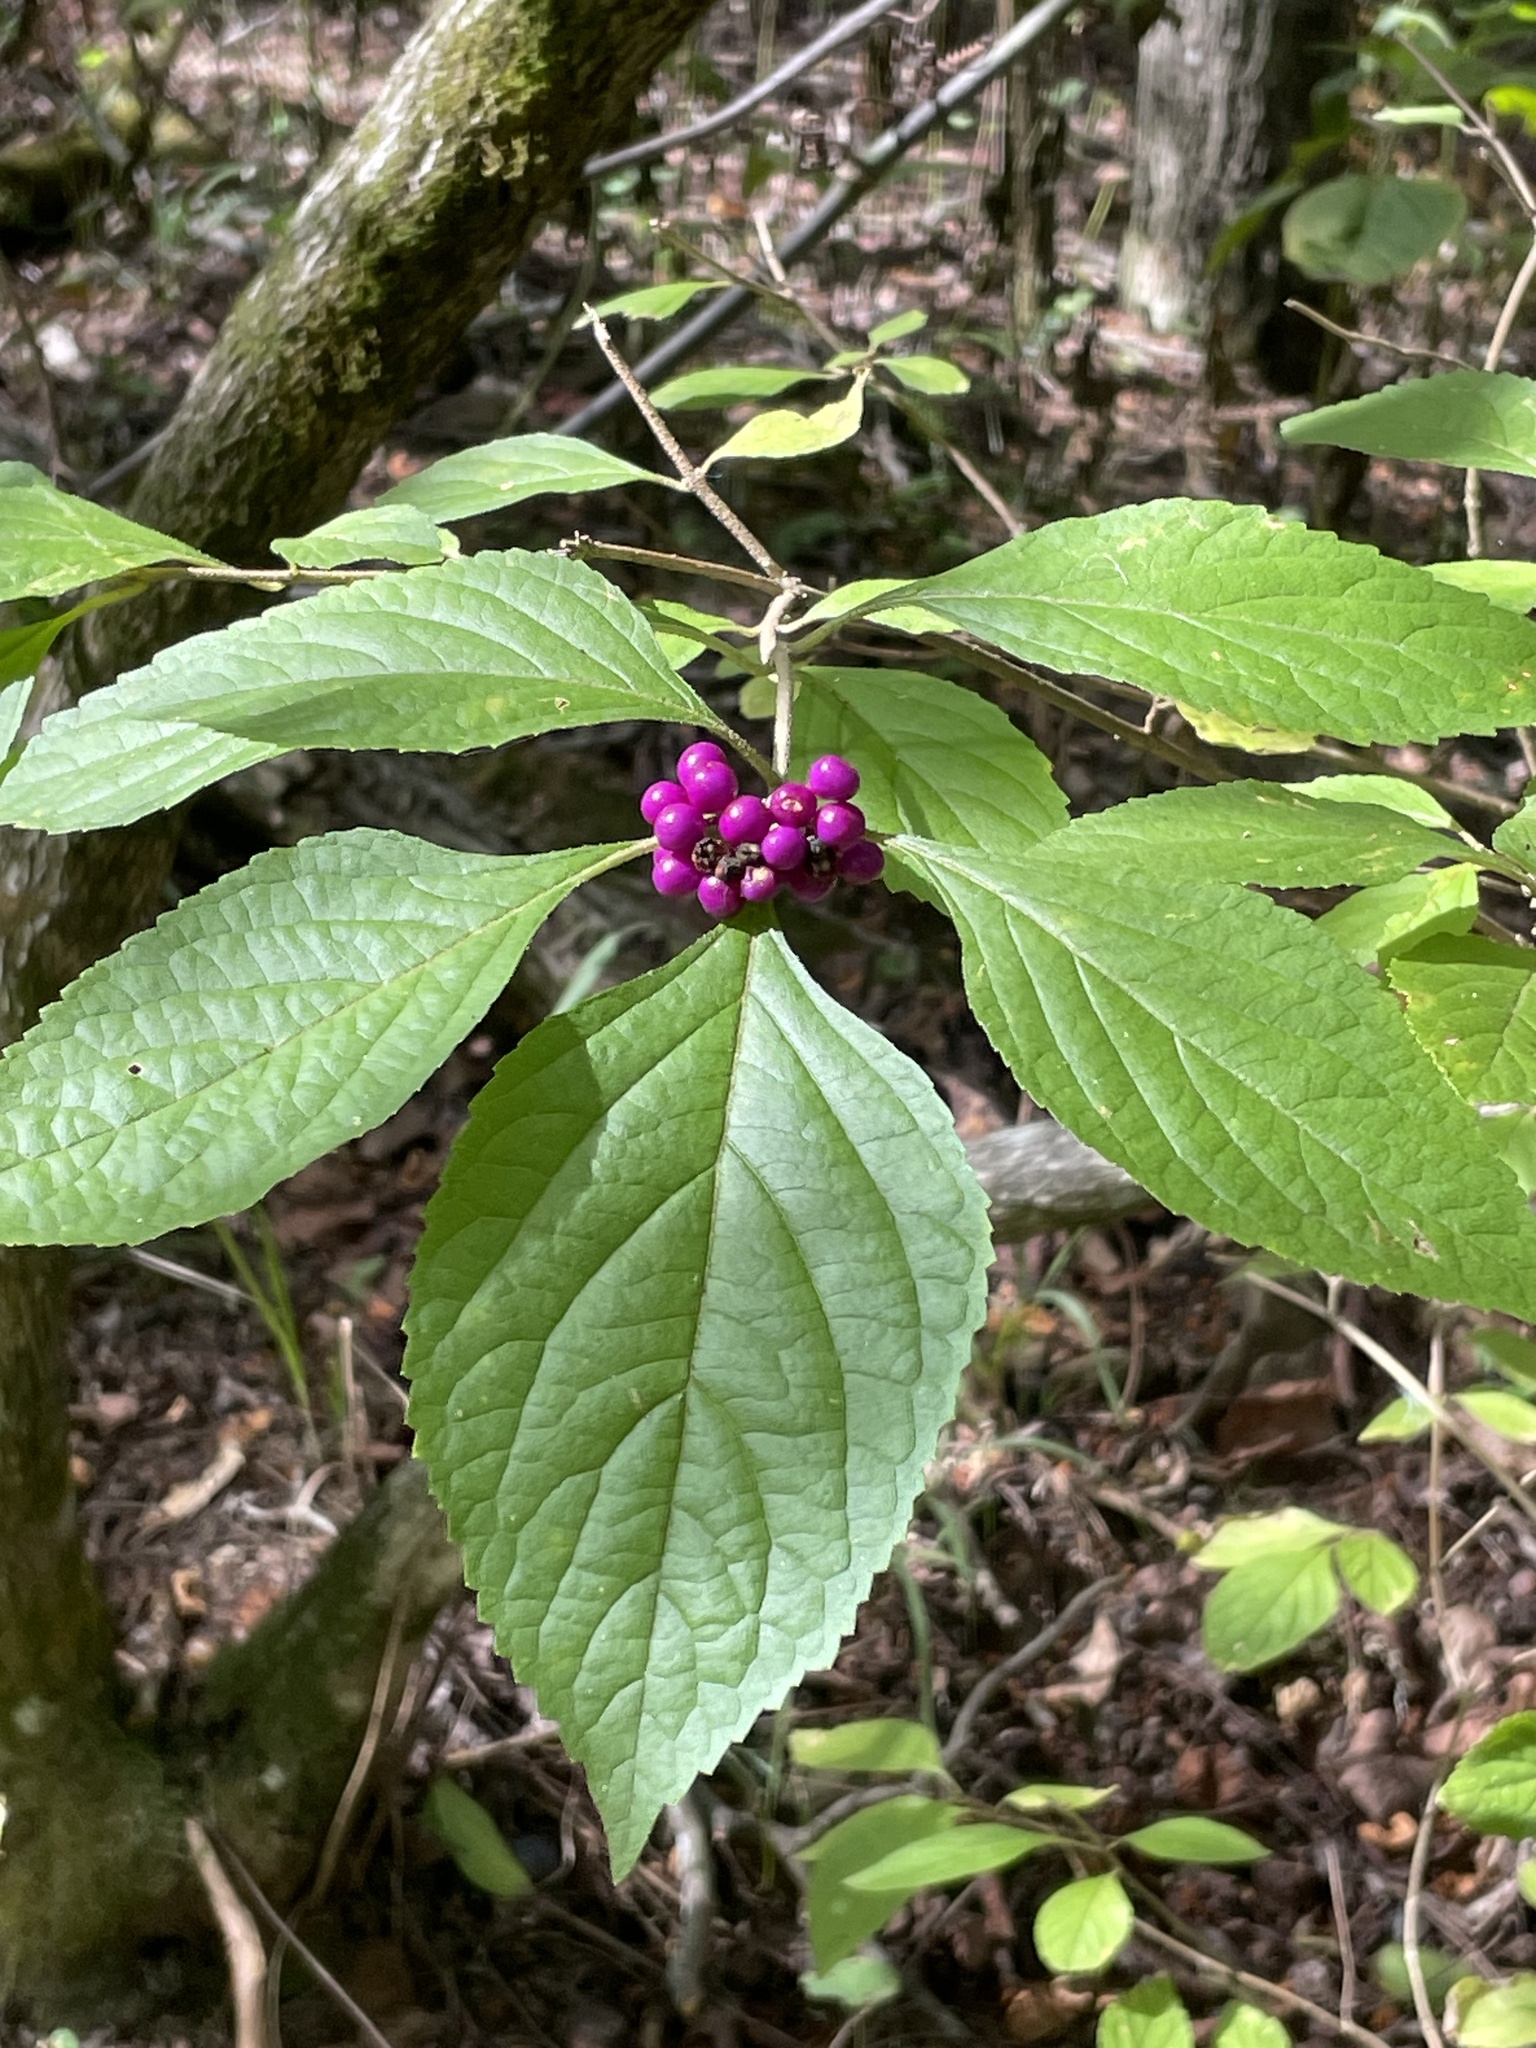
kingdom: Plantae
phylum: Tracheophyta
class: Magnoliopsida
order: Lamiales
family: Lamiaceae
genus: Callicarpa
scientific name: Callicarpa americana
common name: American beautyberry
